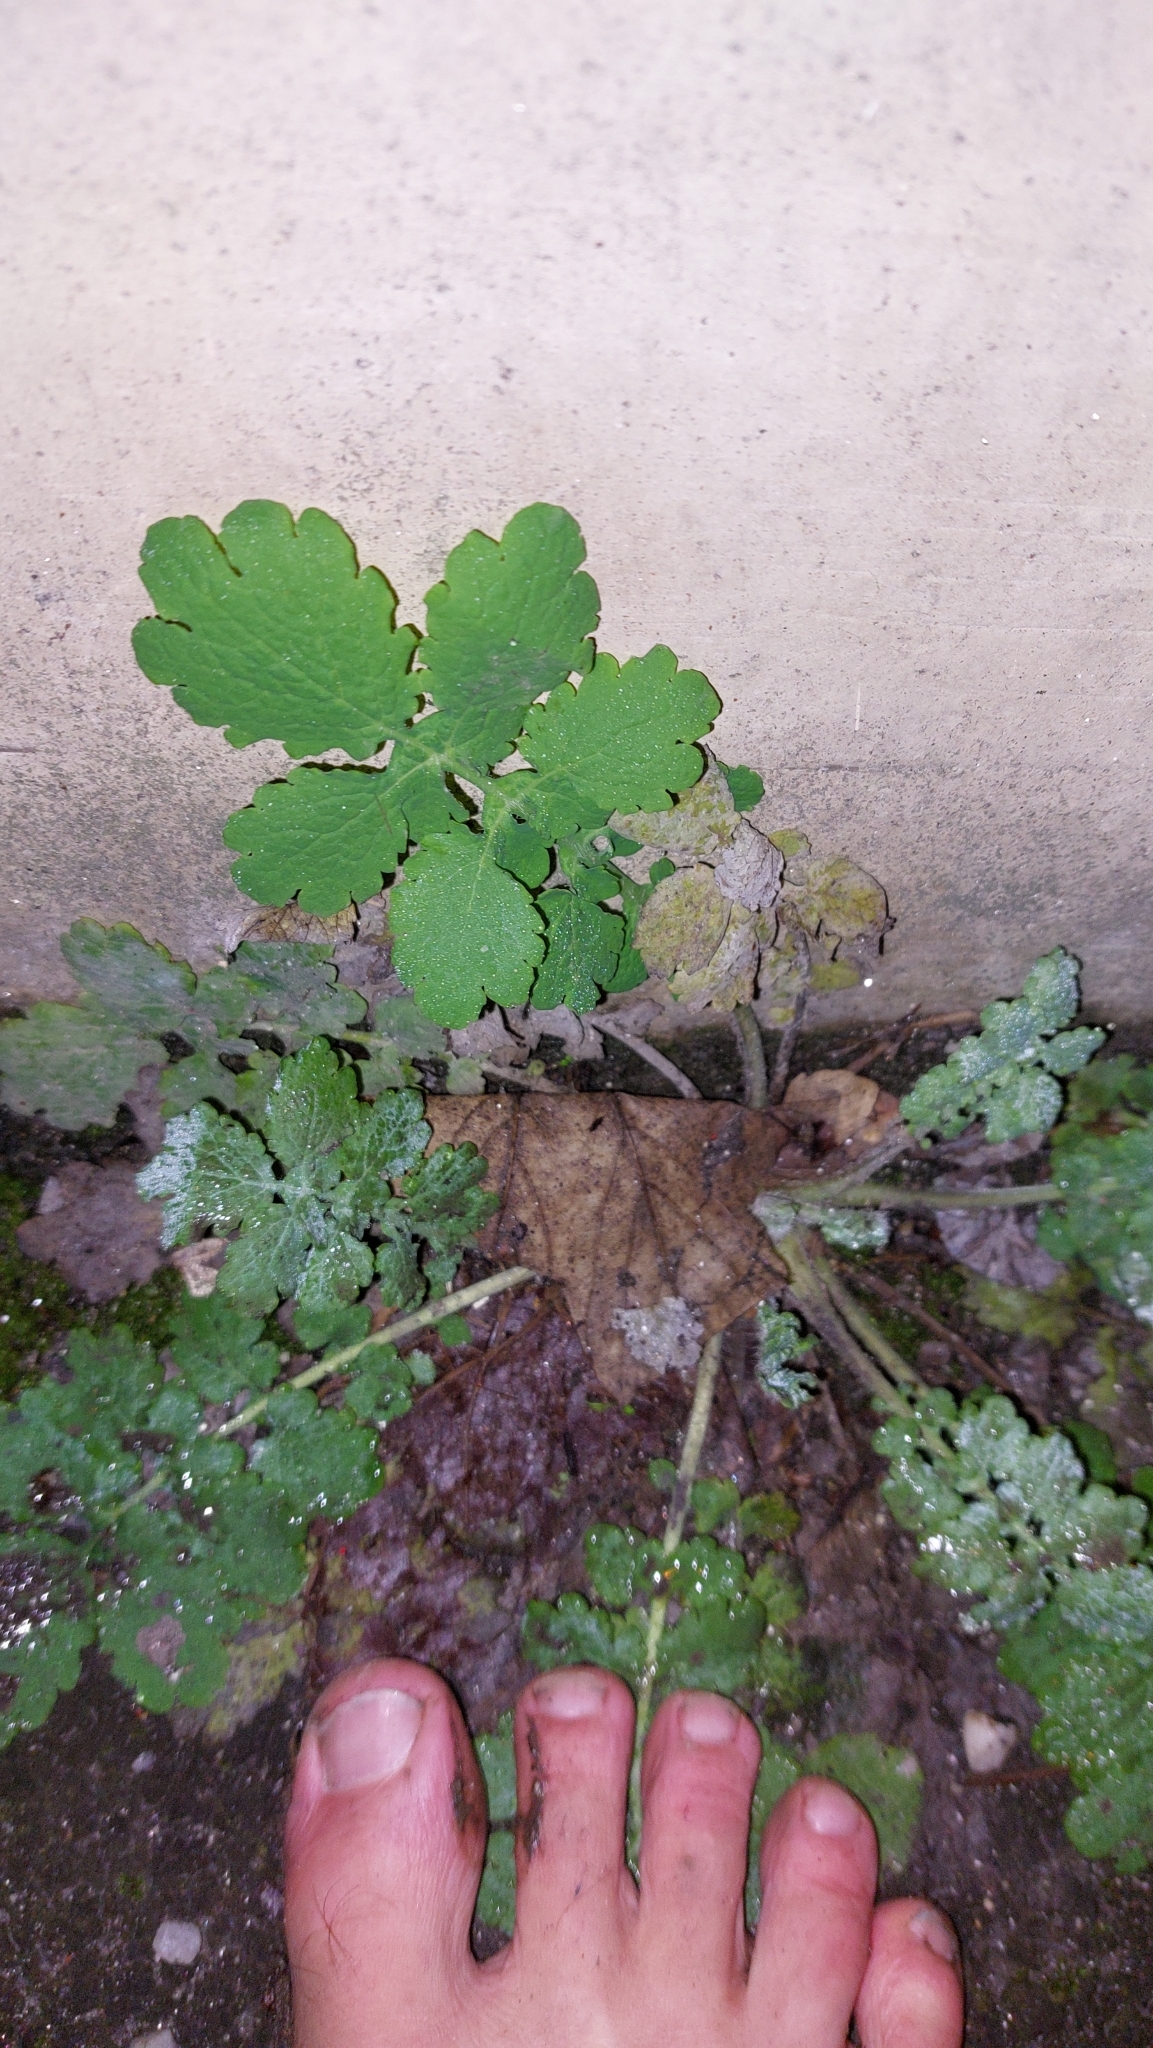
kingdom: Plantae
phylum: Tracheophyta
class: Magnoliopsida
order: Ranunculales
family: Papaveraceae
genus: Chelidonium
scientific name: Chelidonium majus
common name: Greater celandine
